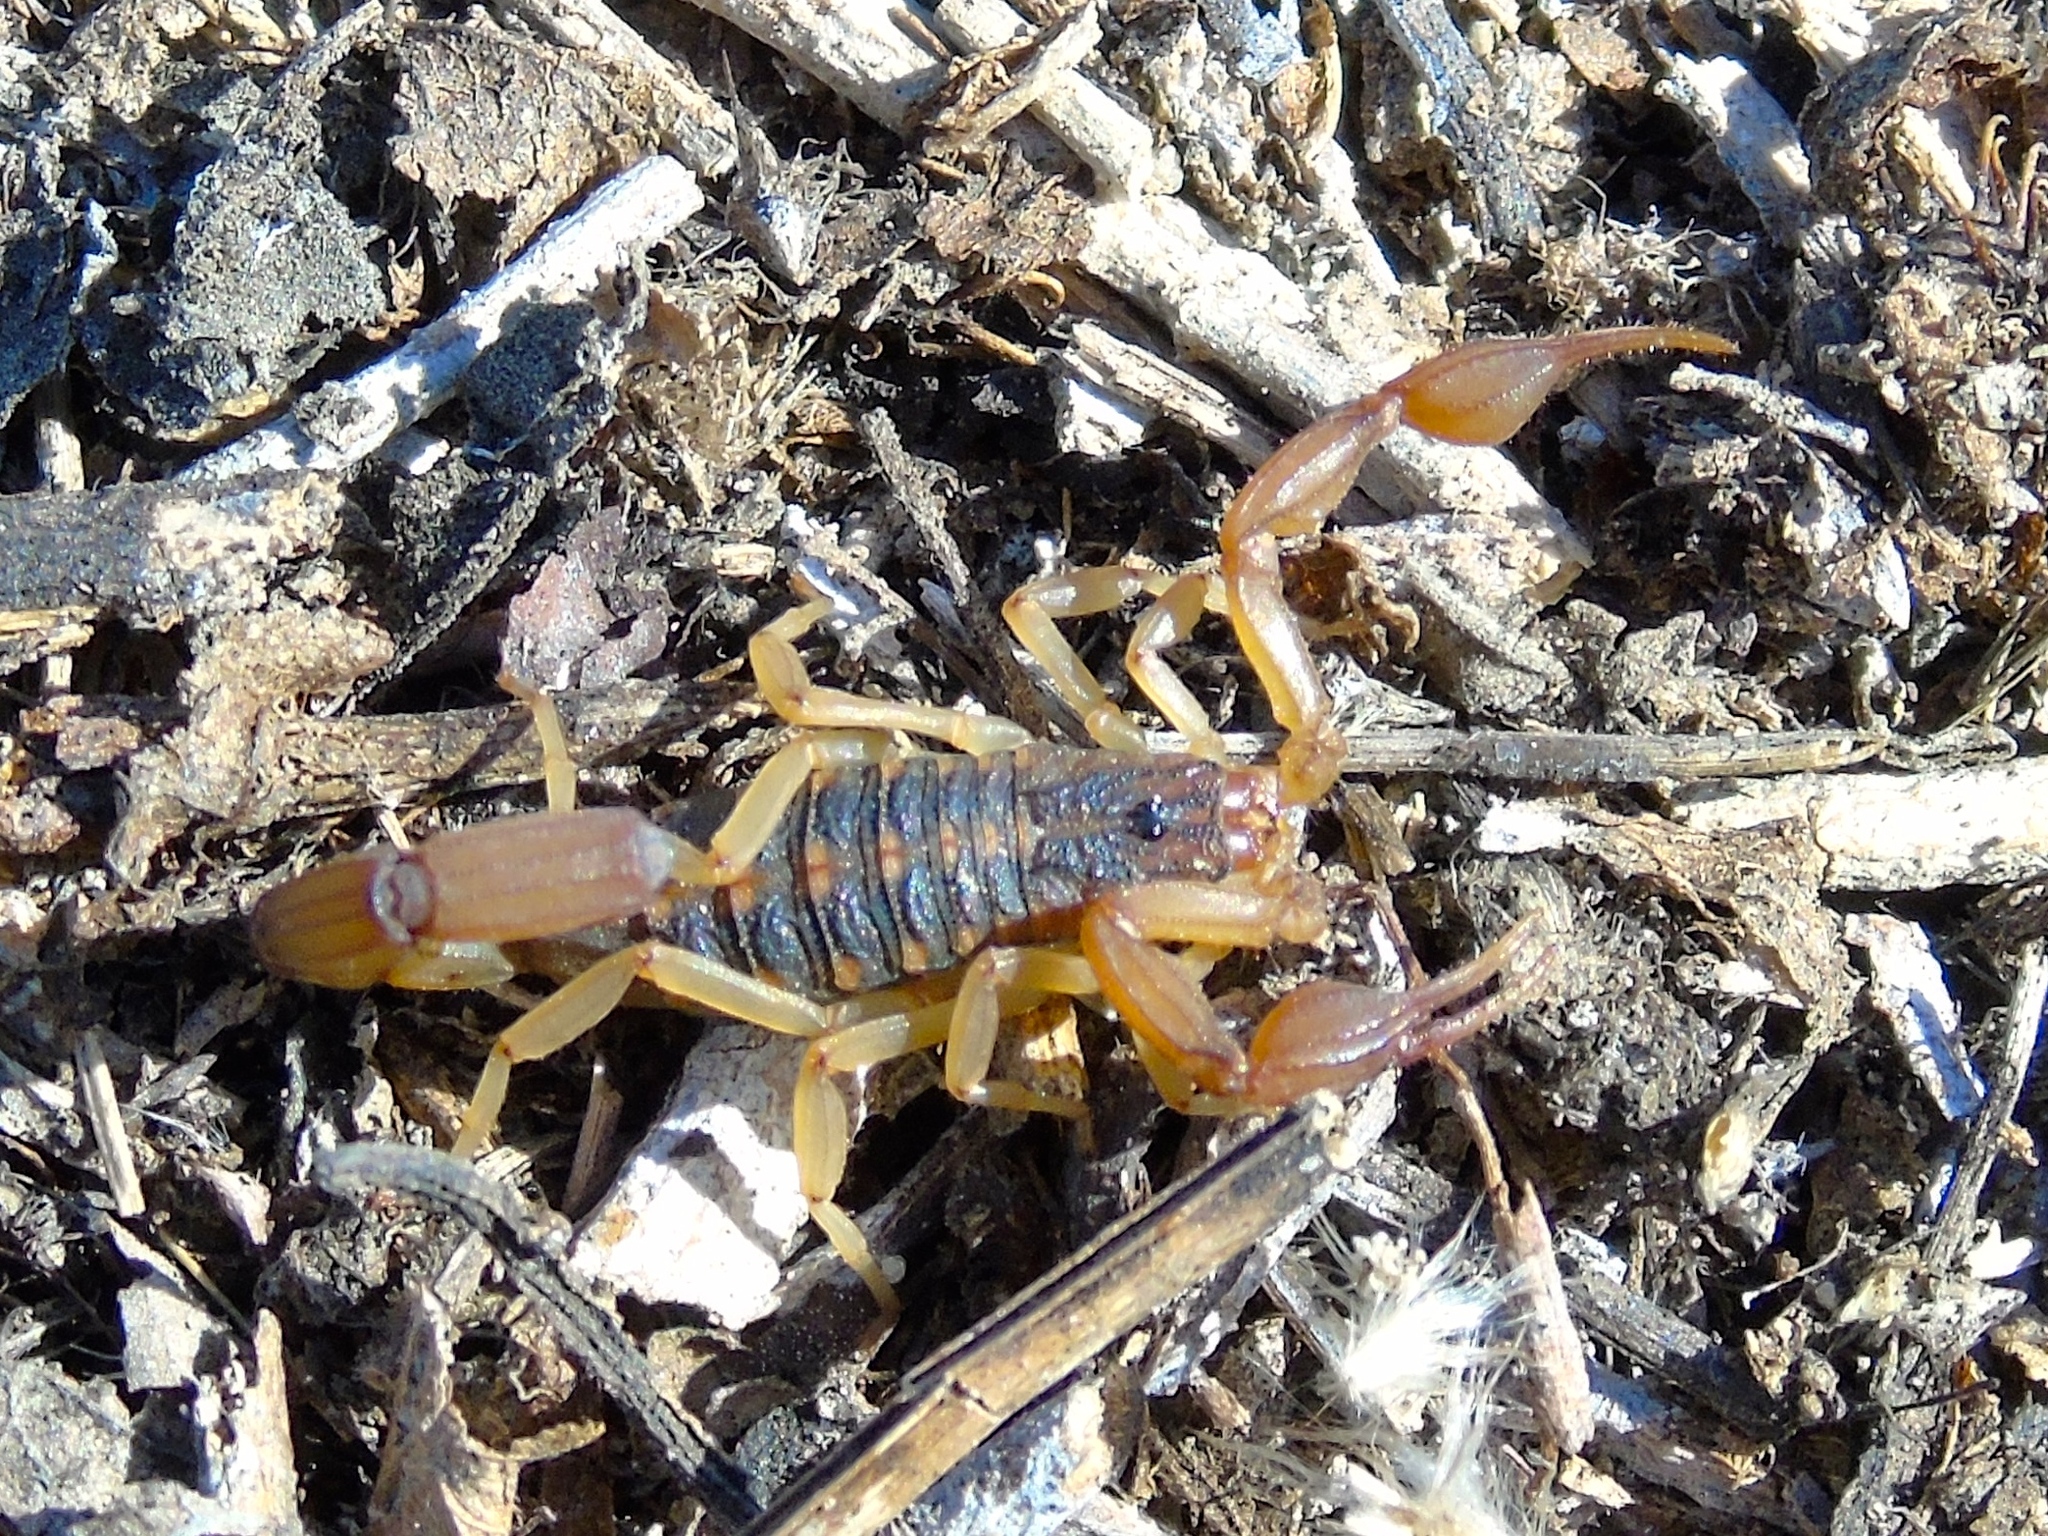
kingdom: Animalia
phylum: Arthropoda
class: Arachnida
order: Scorpiones
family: Buthidae
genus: Centruroides
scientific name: Centruroides baldazoi
